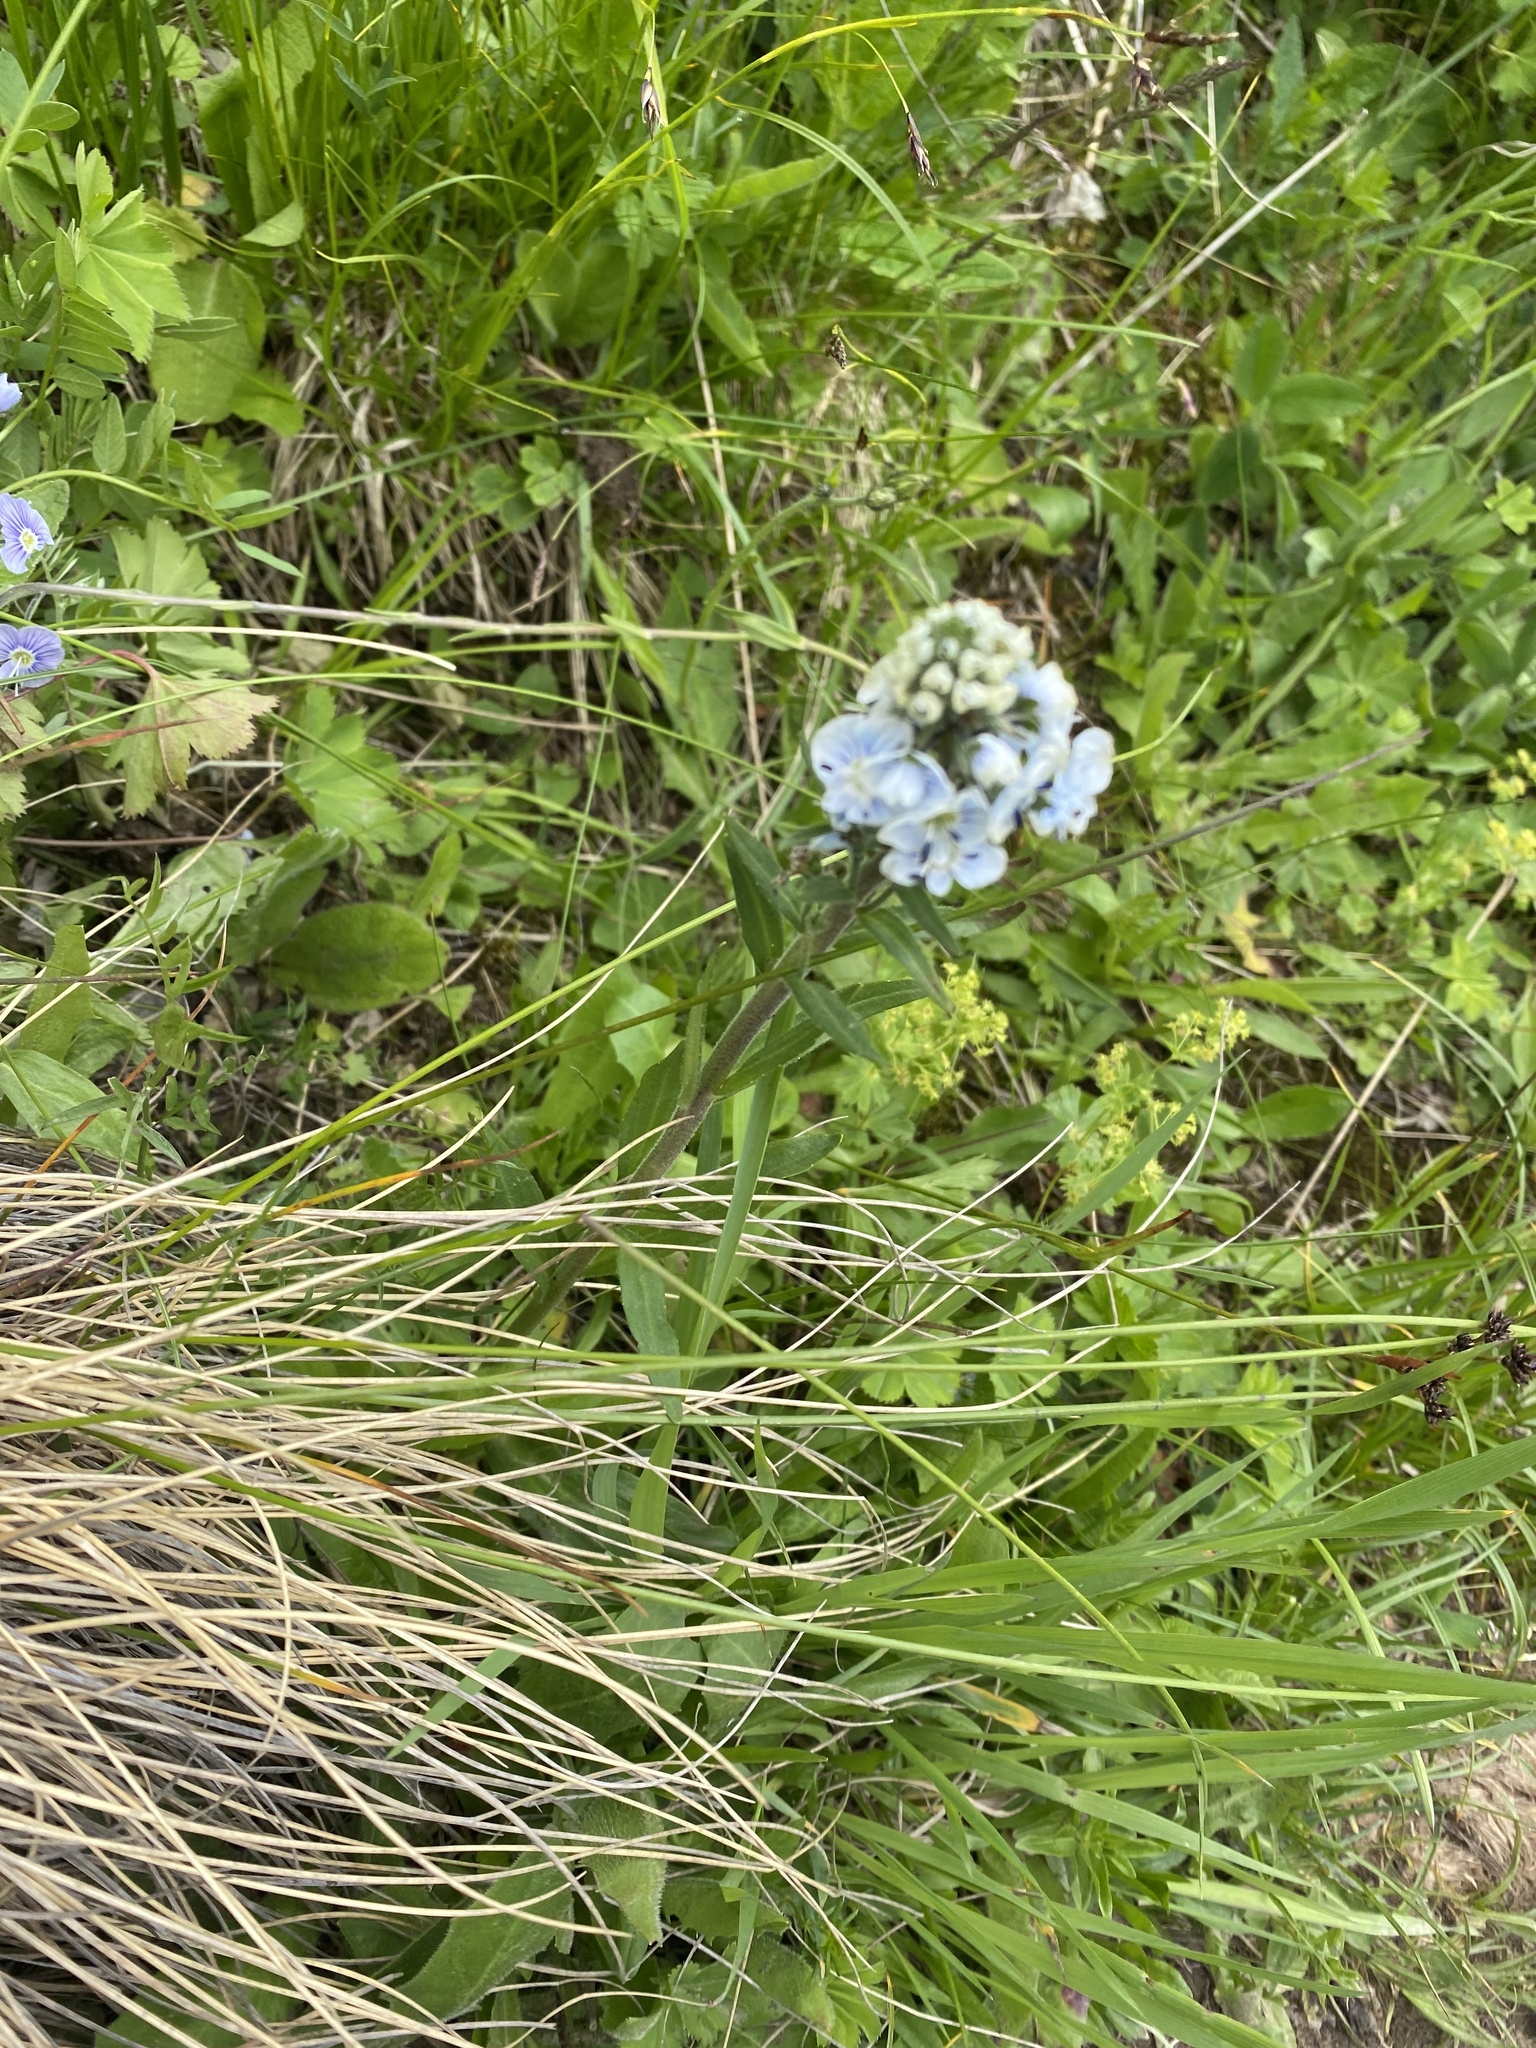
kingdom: Plantae
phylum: Tracheophyta
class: Magnoliopsida
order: Lamiales
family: Plantaginaceae
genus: Veronica
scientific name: Veronica gentianoides
